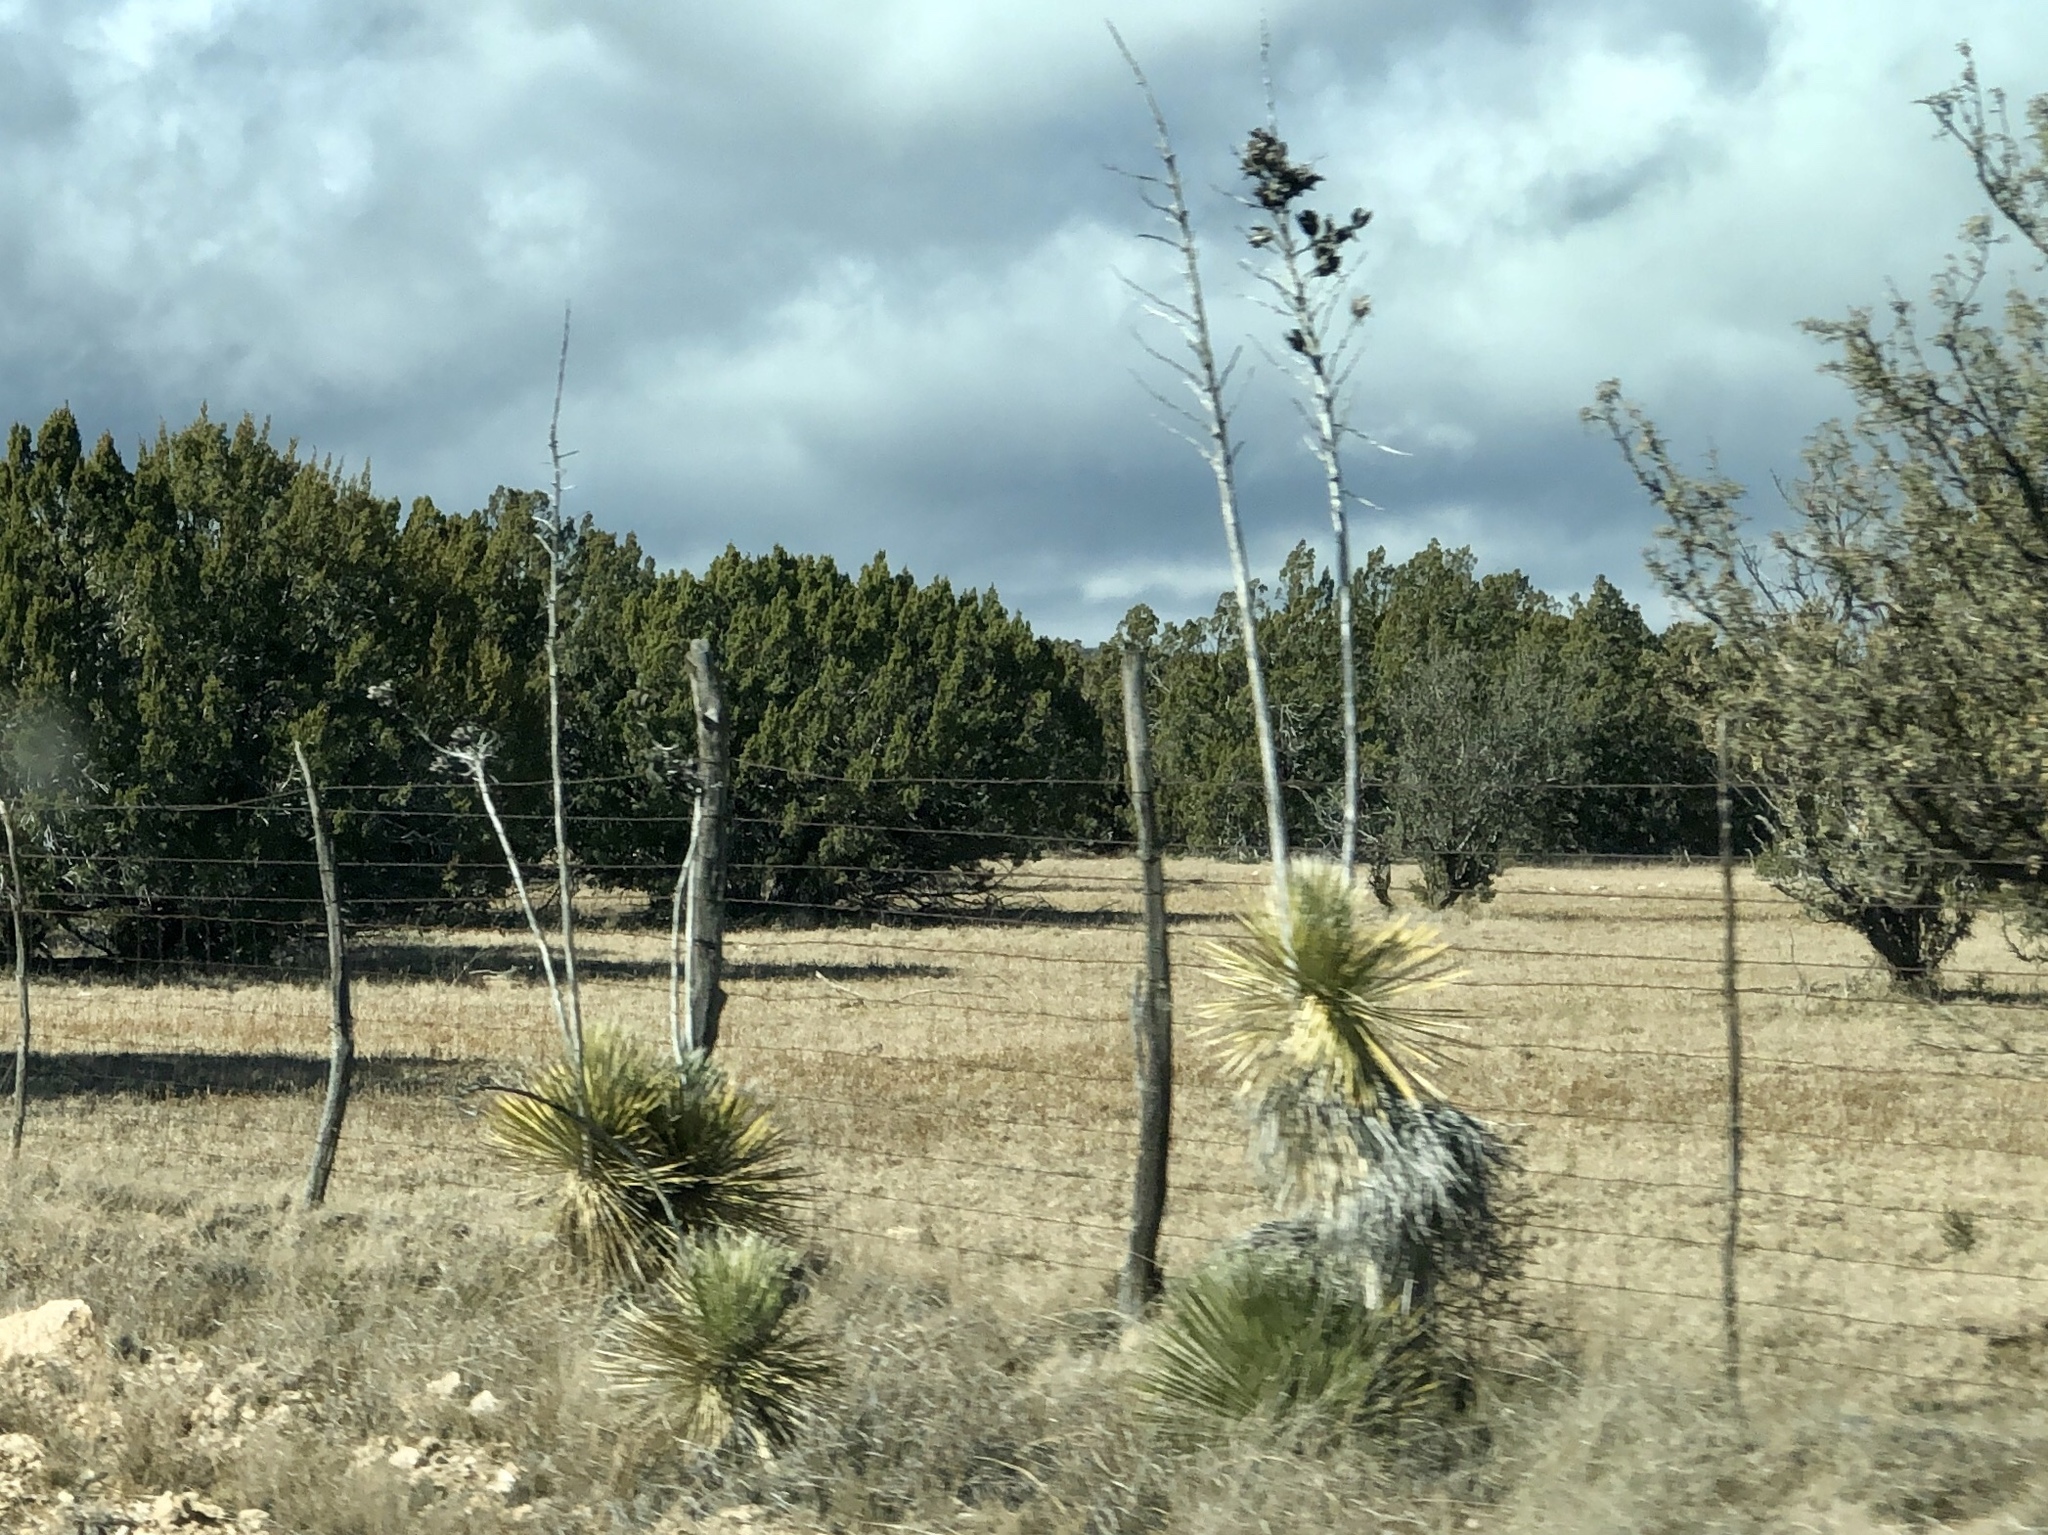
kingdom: Plantae
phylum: Tracheophyta
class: Liliopsida
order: Asparagales
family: Asparagaceae
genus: Yucca
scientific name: Yucca elata
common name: Palmella
